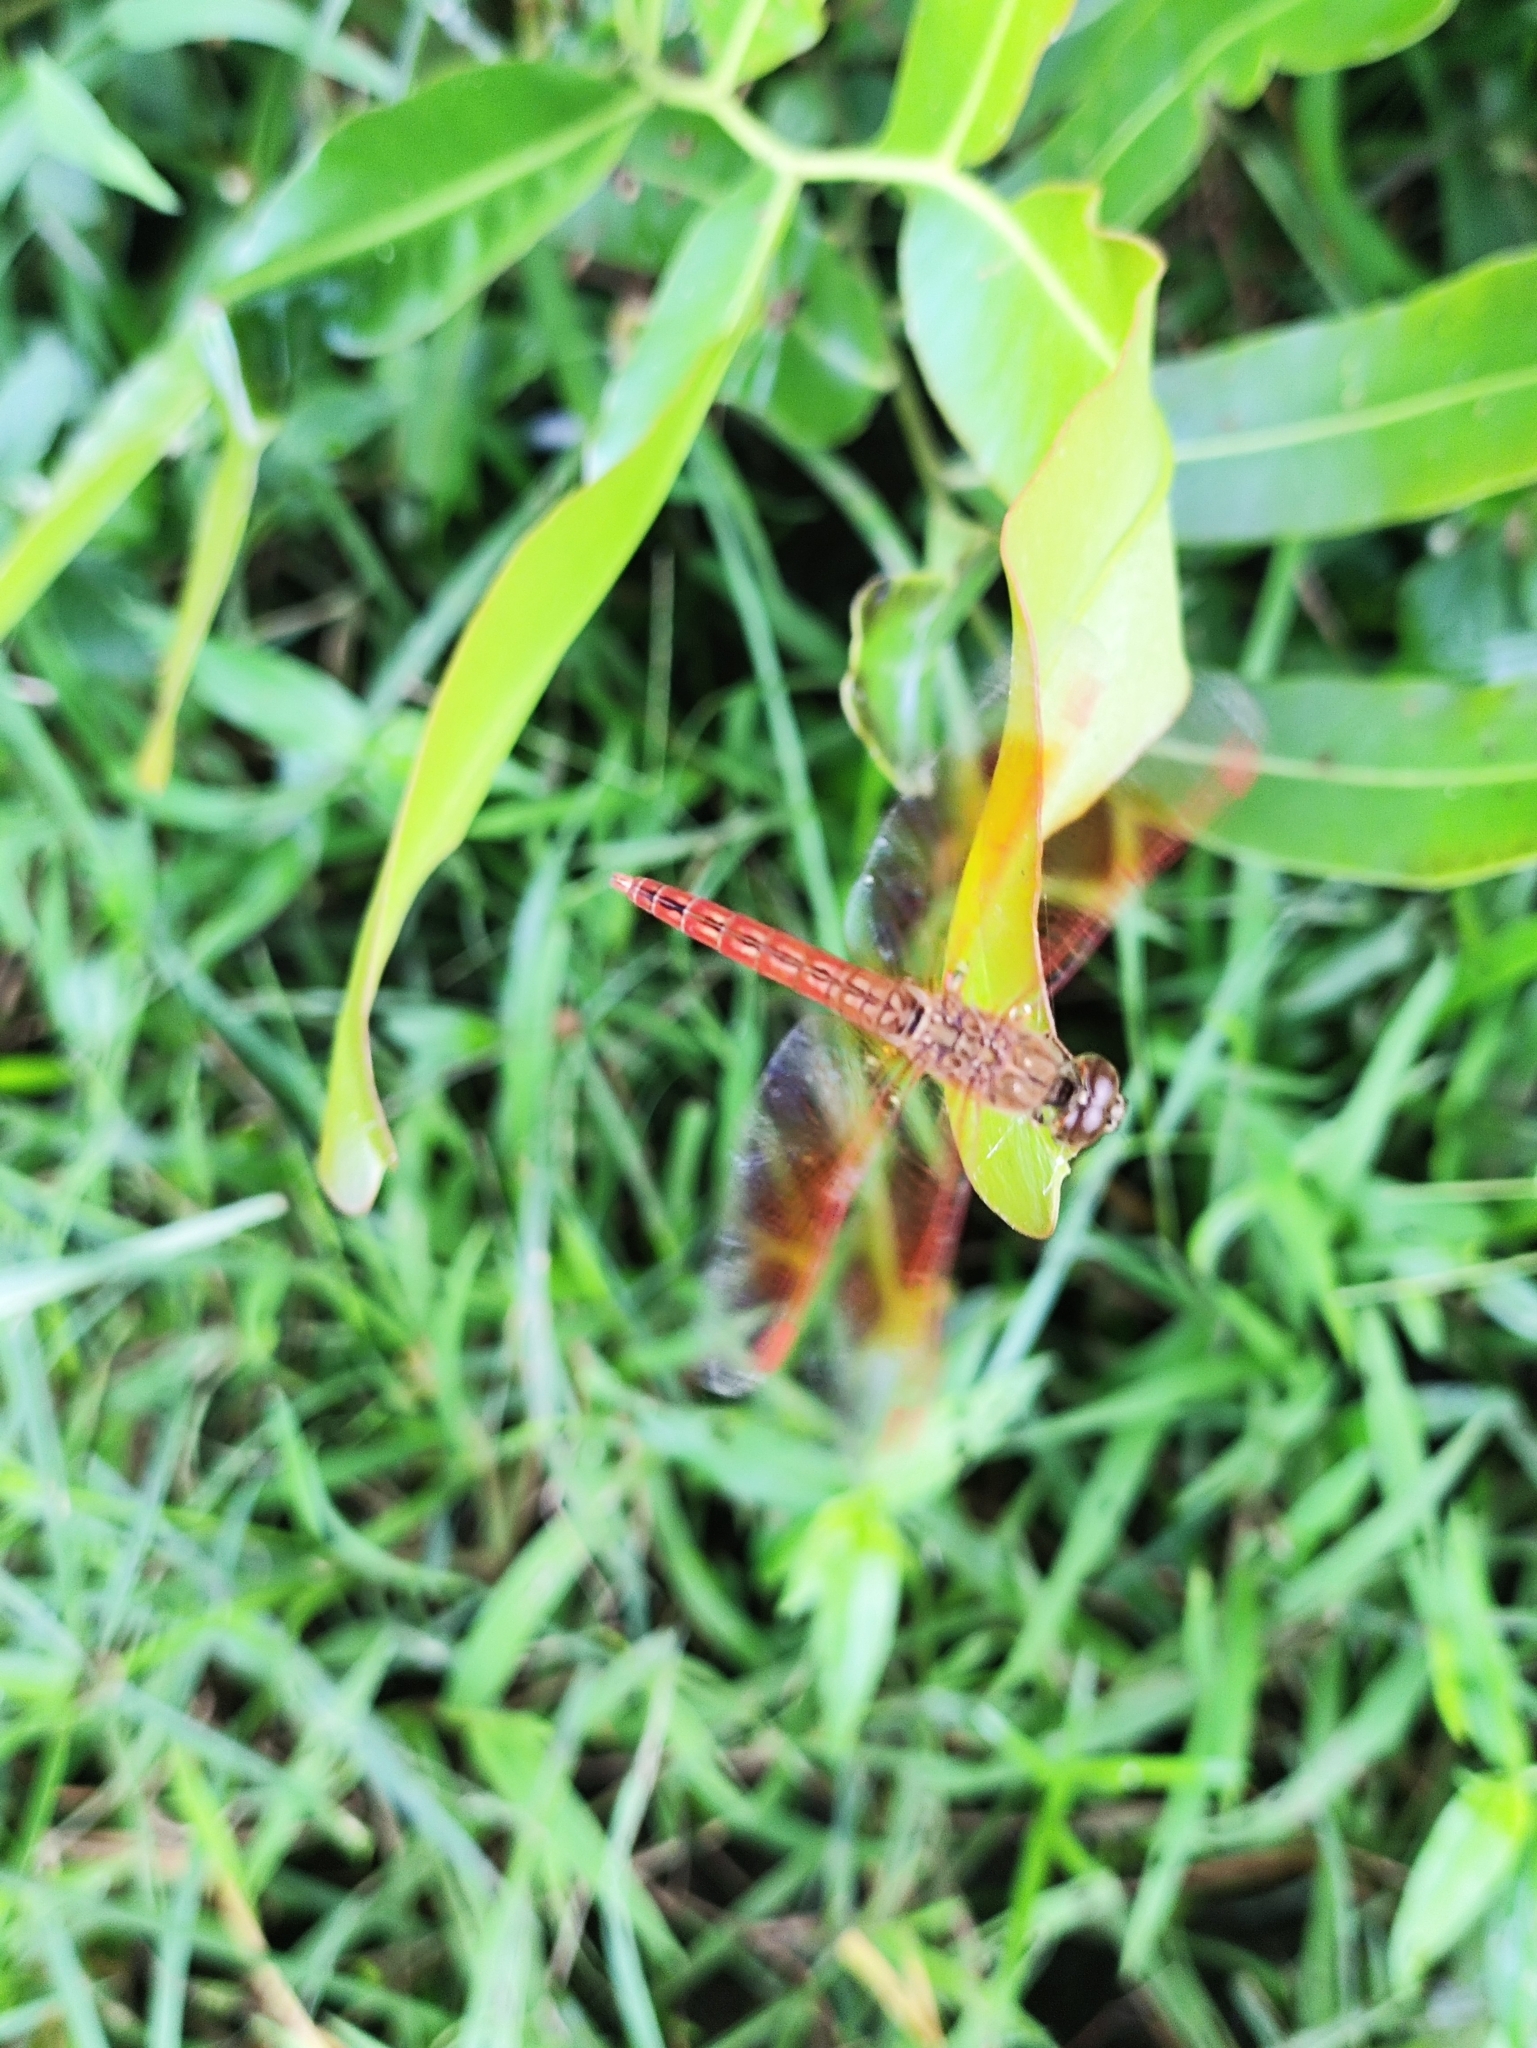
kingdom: Animalia
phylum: Arthropoda
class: Insecta
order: Odonata
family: Libellulidae
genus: Brachythemis
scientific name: Brachythemis contaminata
